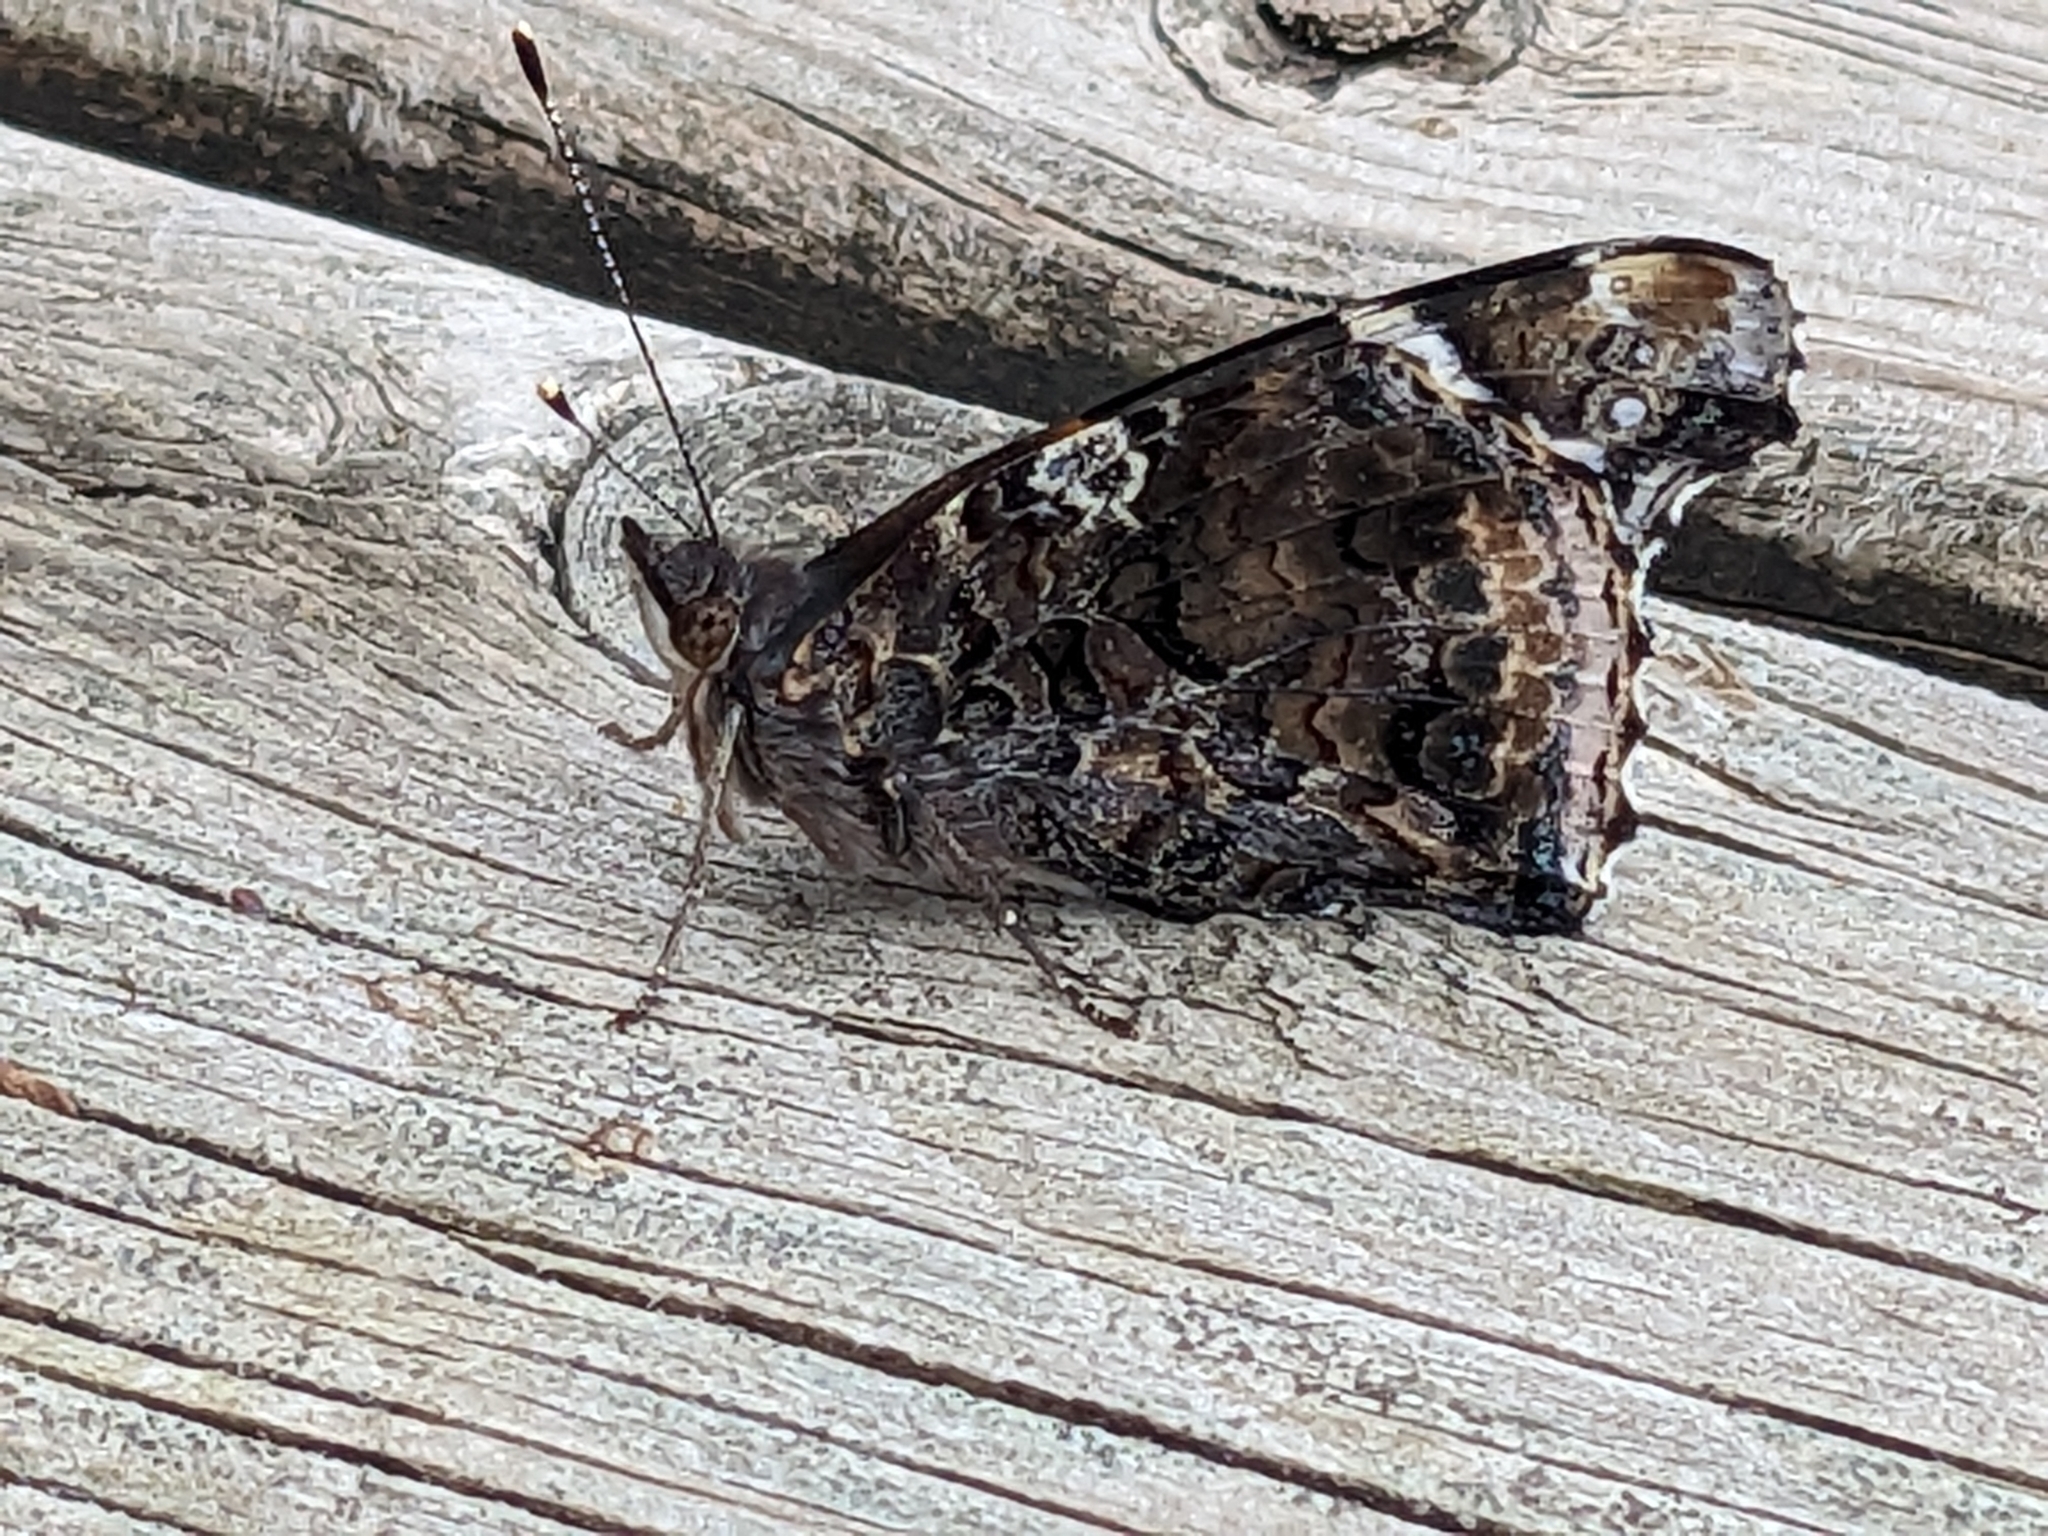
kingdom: Animalia
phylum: Arthropoda
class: Insecta
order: Lepidoptera
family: Nymphalidae
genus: Vanessa
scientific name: Vanessa atalanta
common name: Red admiral
